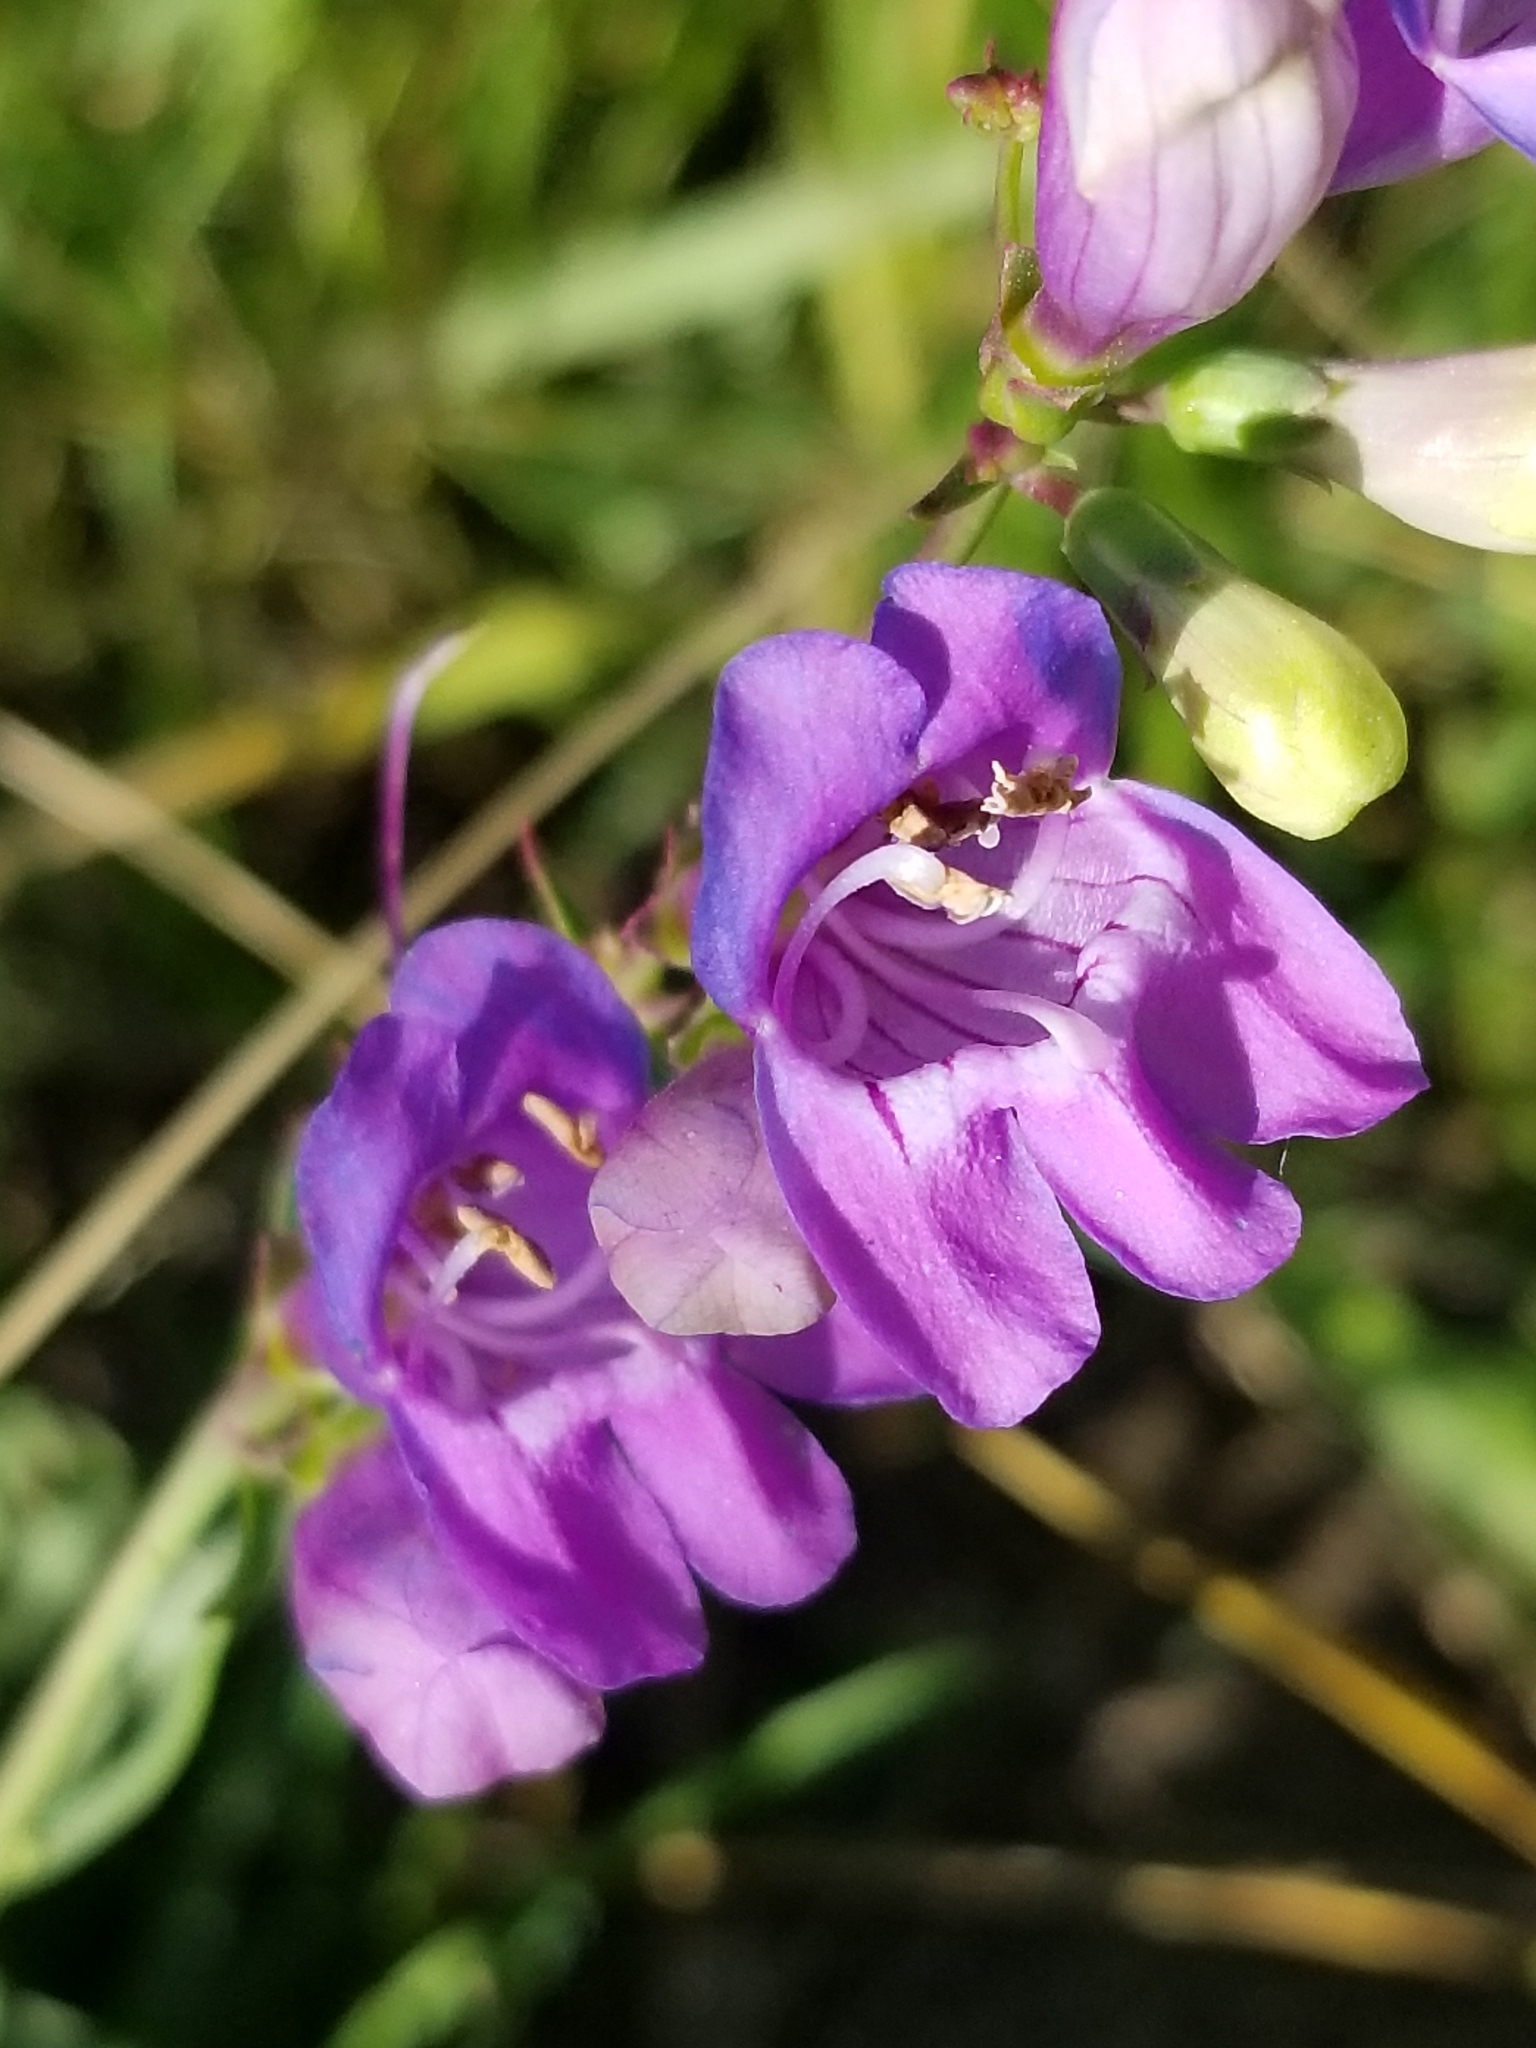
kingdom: Plantae
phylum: Tracheophyta
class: Magnoliopsida
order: Lamiales
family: Plantaginaceae
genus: Penstemon
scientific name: Penstemon virgatus
